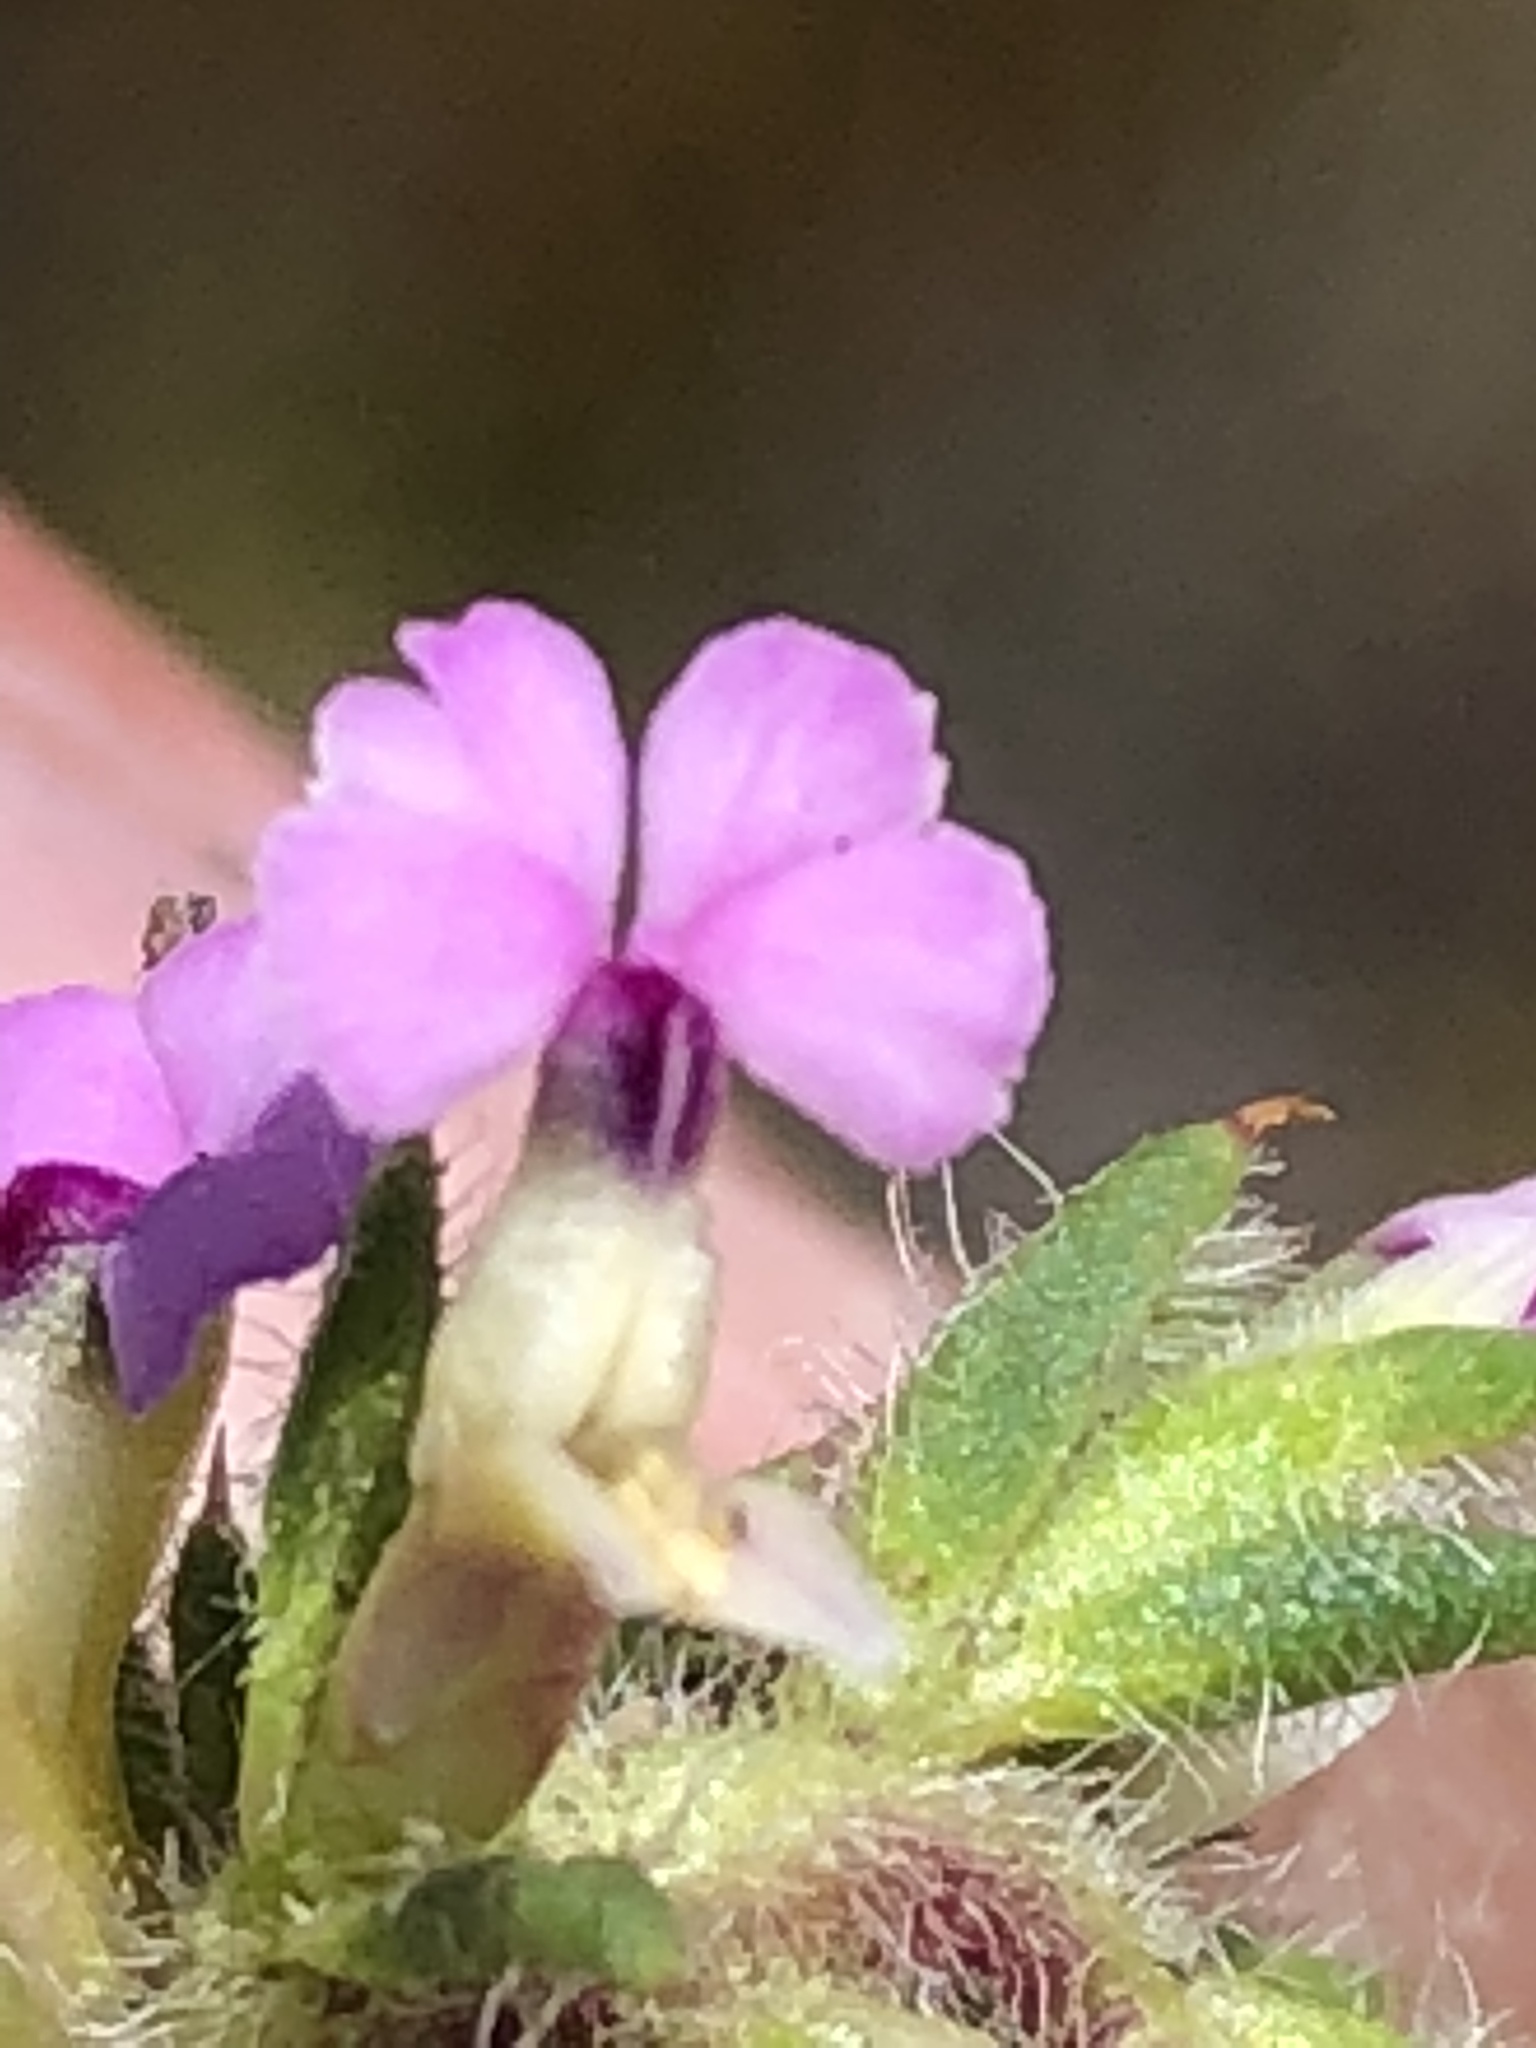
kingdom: Plantae
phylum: Tracheophyta
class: Magnoliopsida
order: Fabales
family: Polygalaceae
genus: Muraltia
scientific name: Muraltia alopecuroides
